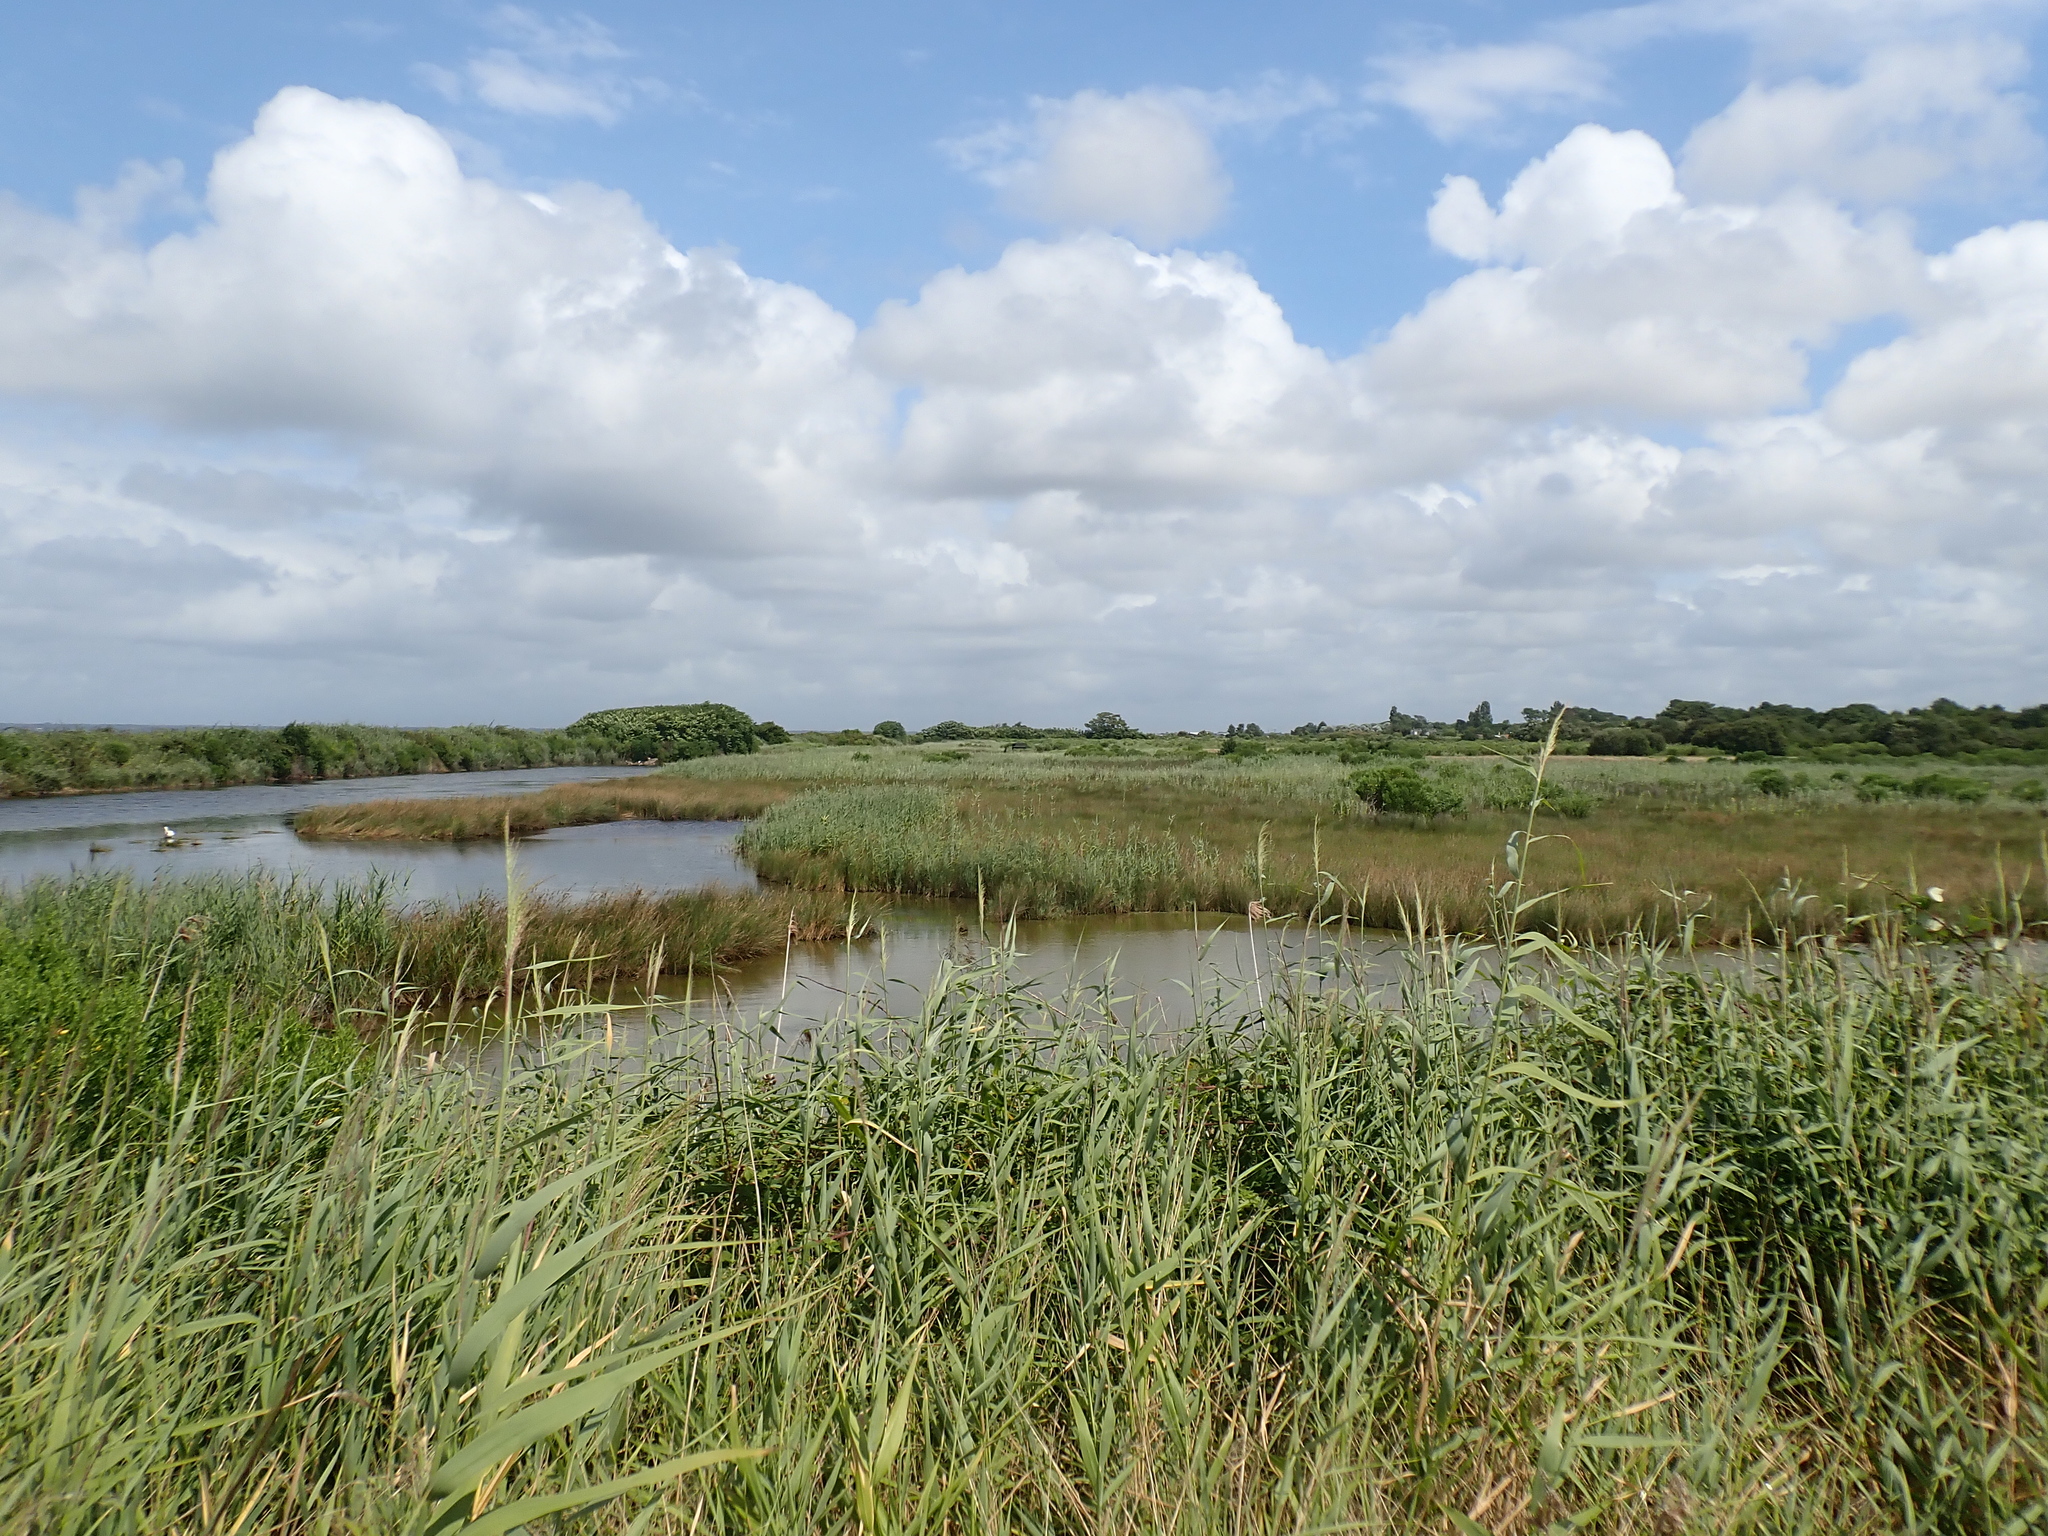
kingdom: Plantae
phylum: Tracheophyta
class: Liliopsida
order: Poales
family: Poaceae
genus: Phragmites
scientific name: Phragmites australis
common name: Common reed
